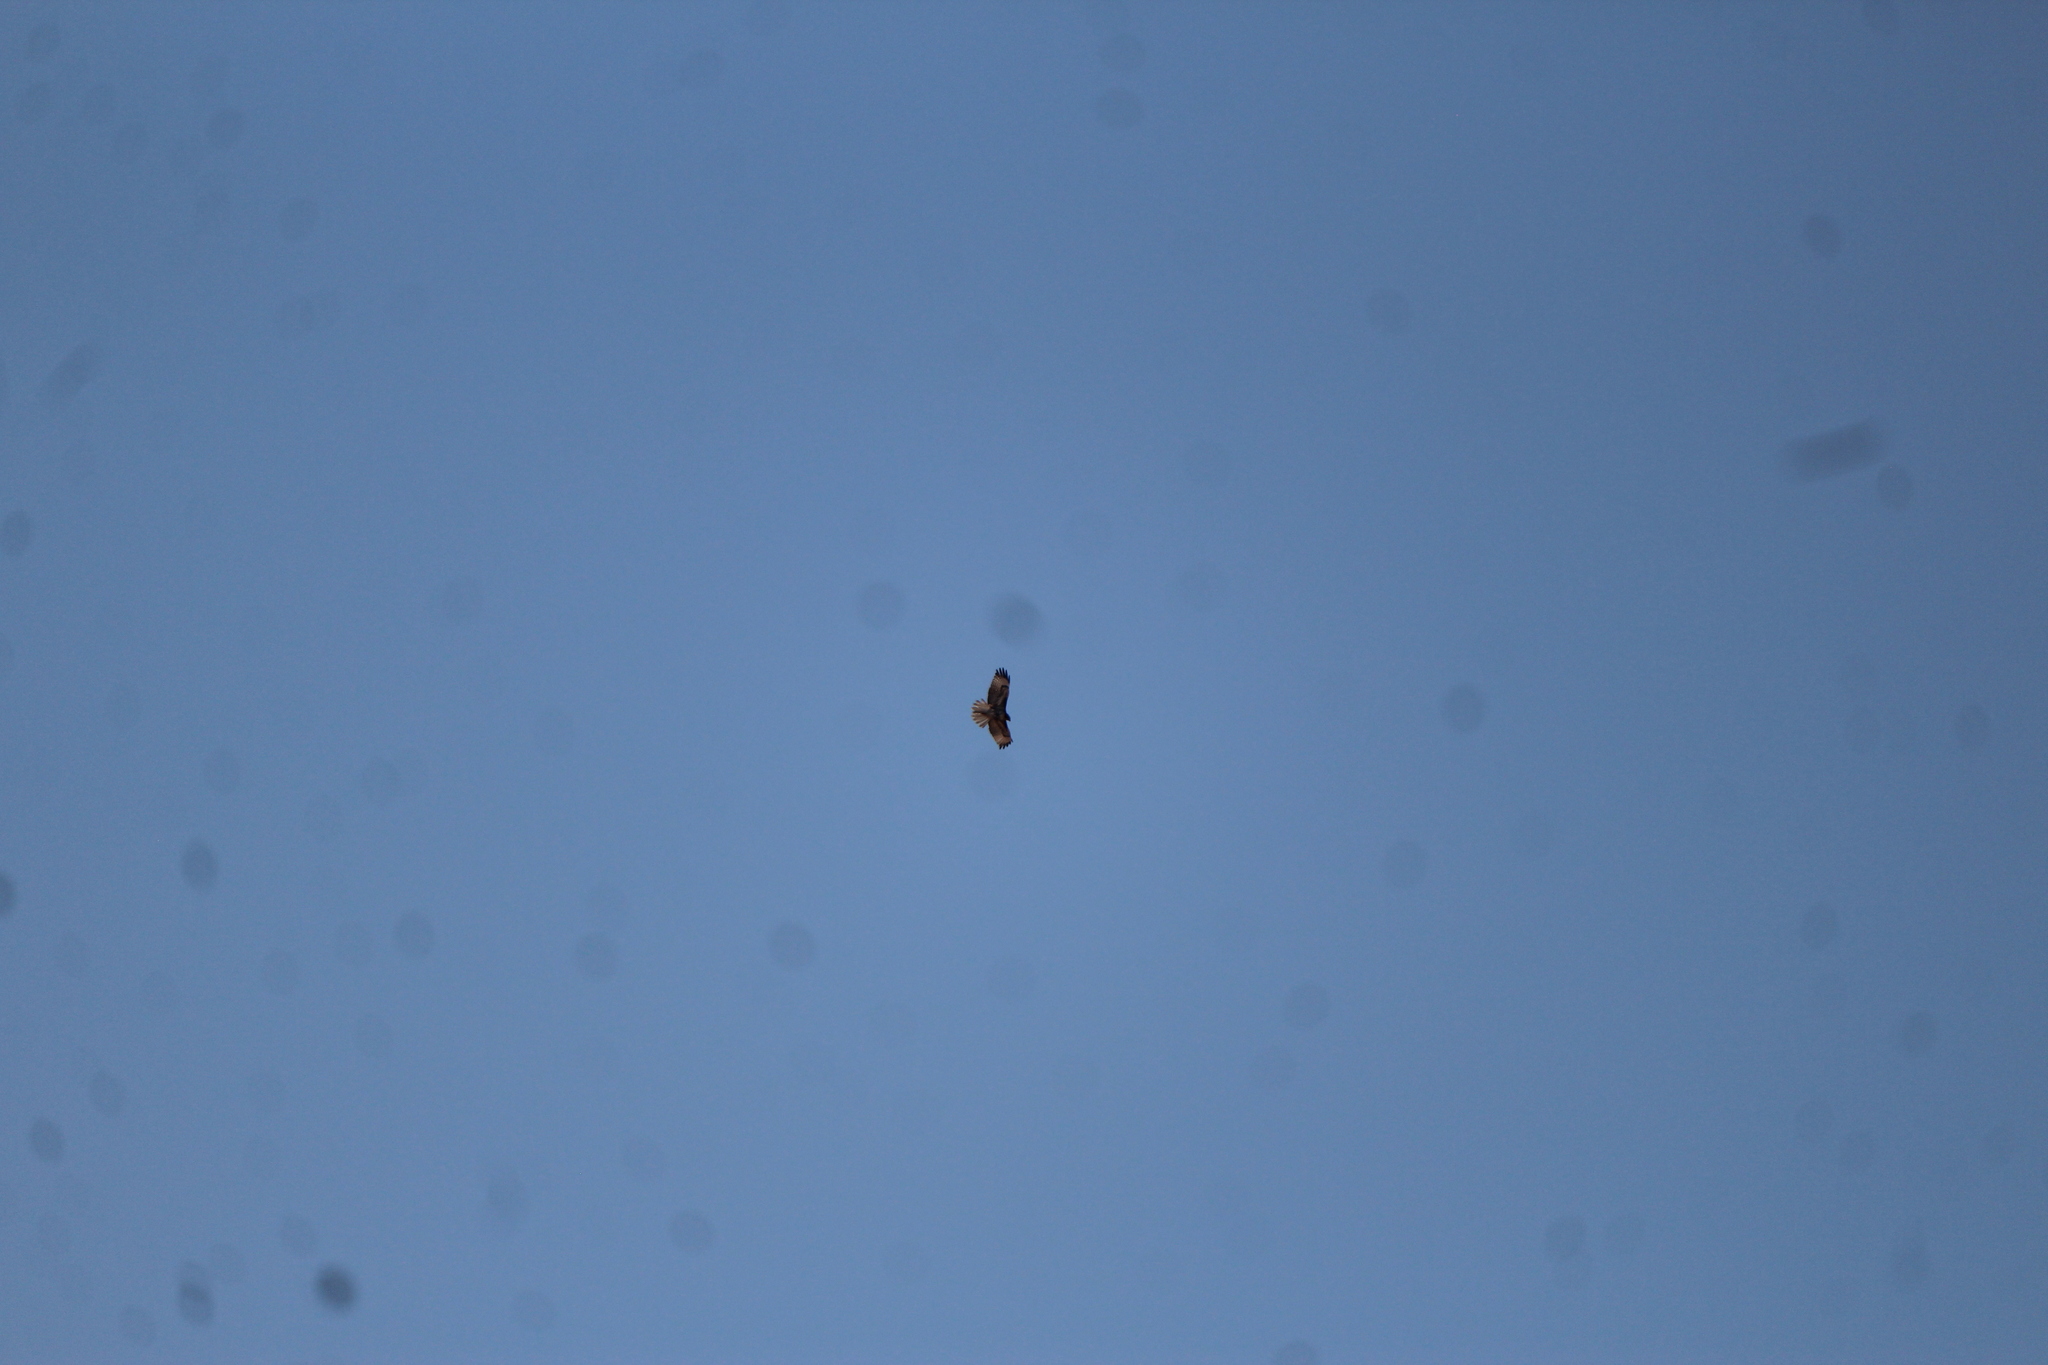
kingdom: Animalia
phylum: Chordata
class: Aves
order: Accipitriformes
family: Accipitridae
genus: Buteo
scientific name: Buteo jamaicensis
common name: Red-tailed hawk
